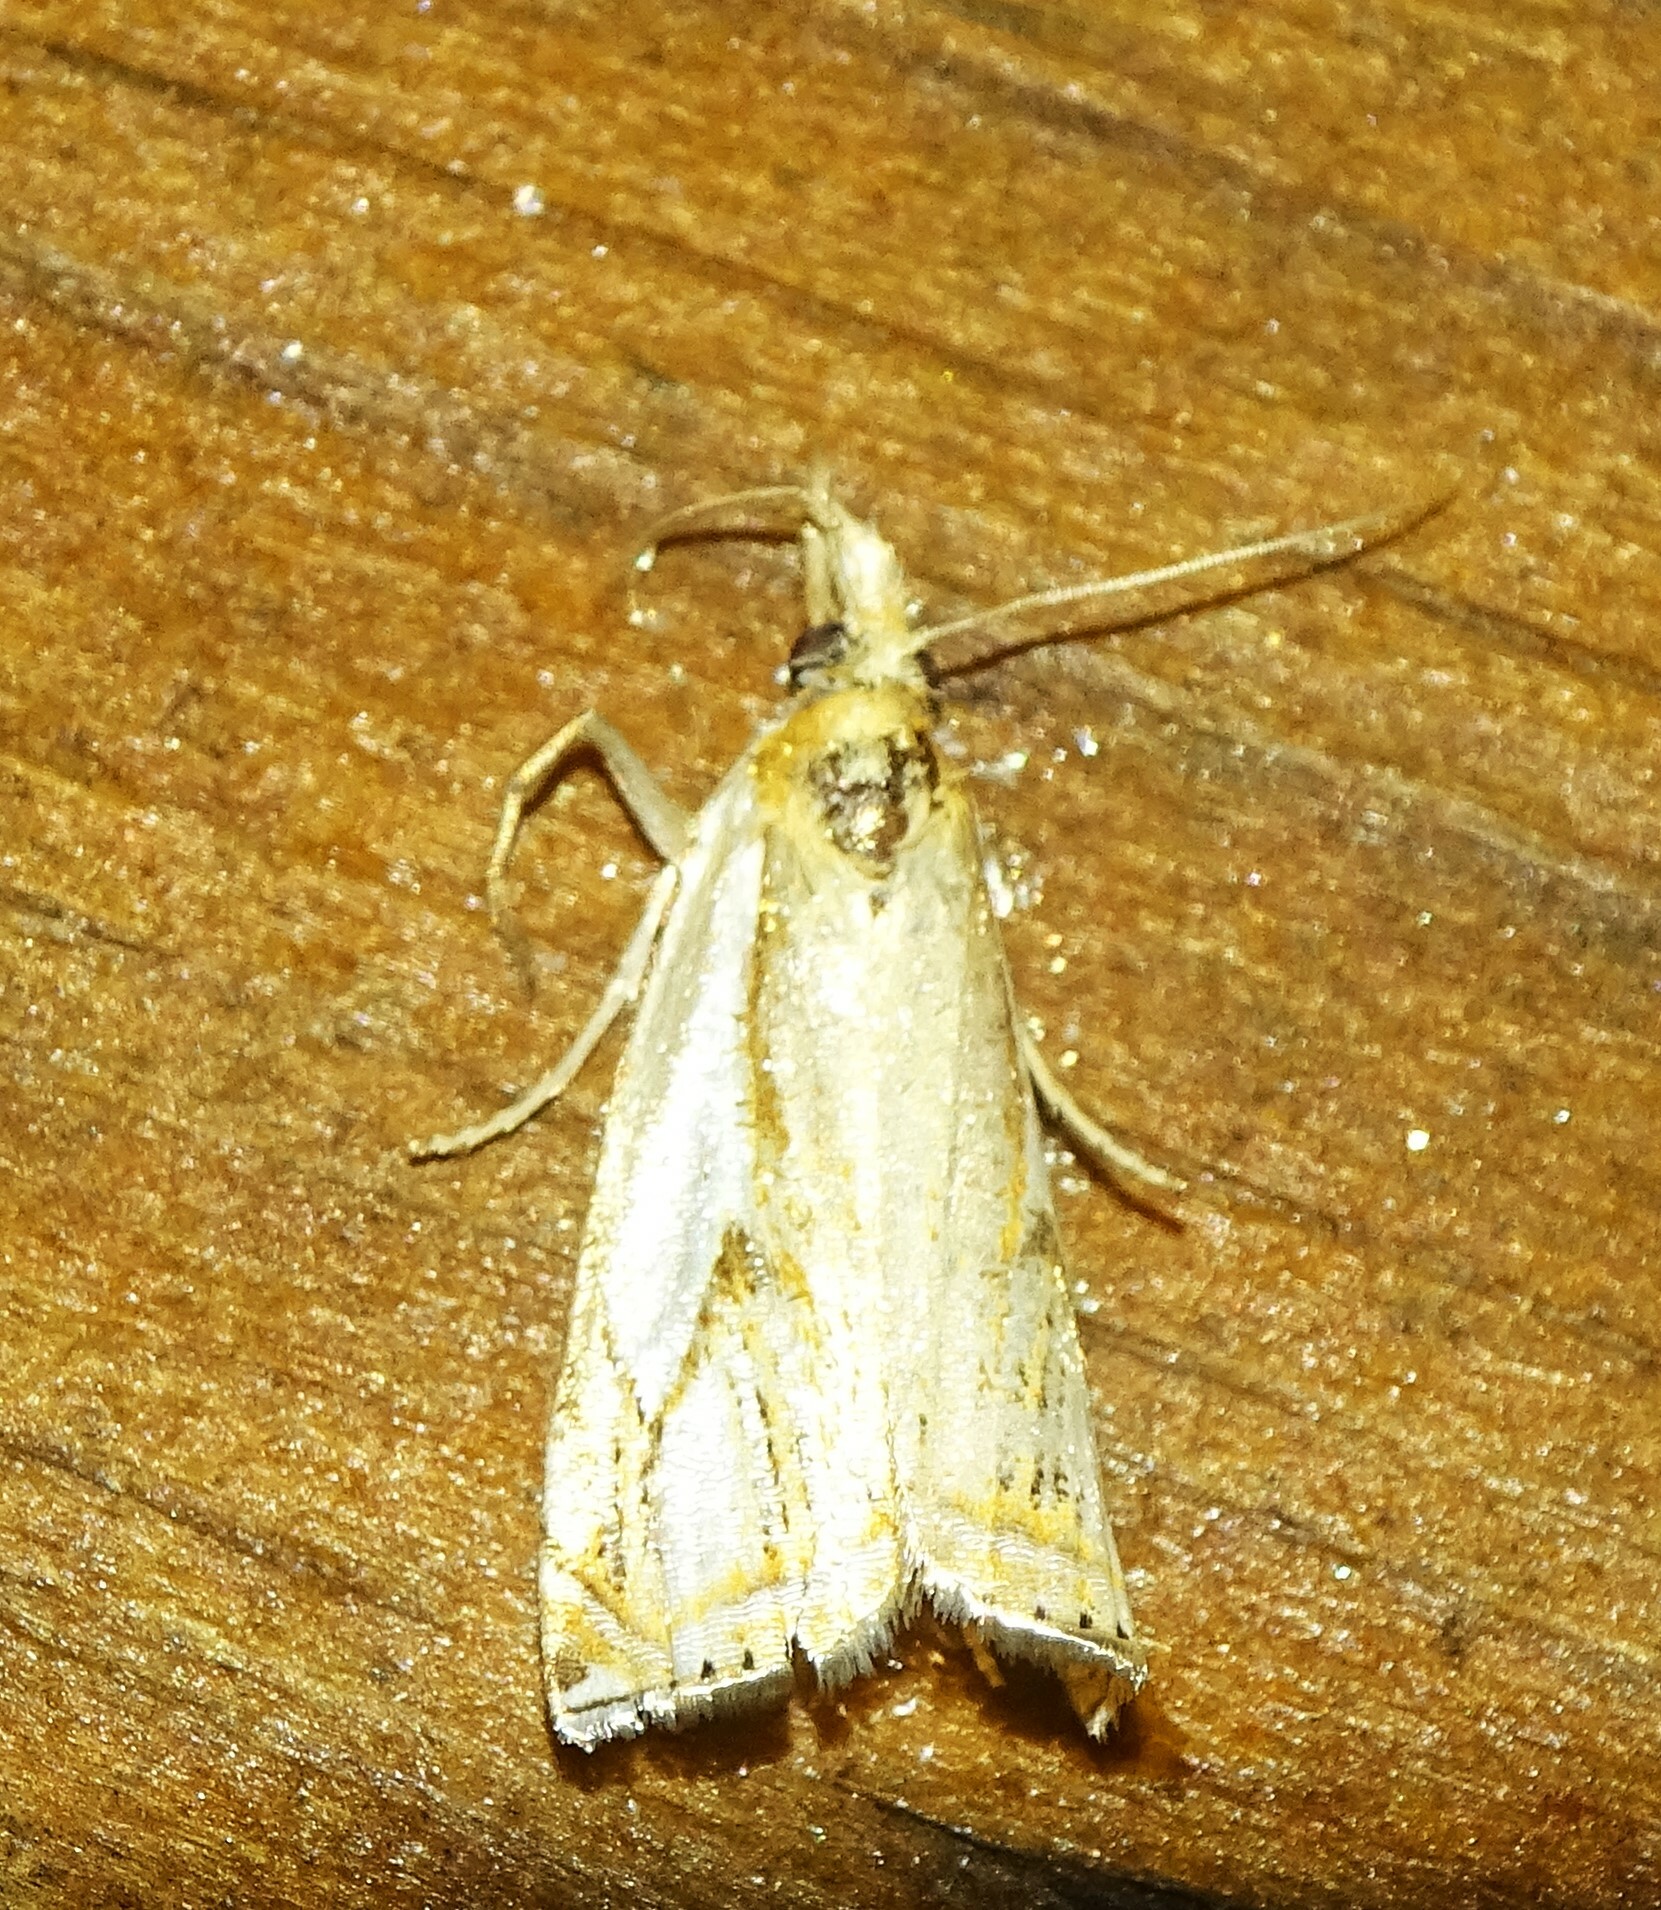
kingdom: Animalia
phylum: Arthropoda
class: Insecta
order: Lepidoptera
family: Crambidae
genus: Crambus
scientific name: Crambus agitatellus
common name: Double-banded grass-veneer
